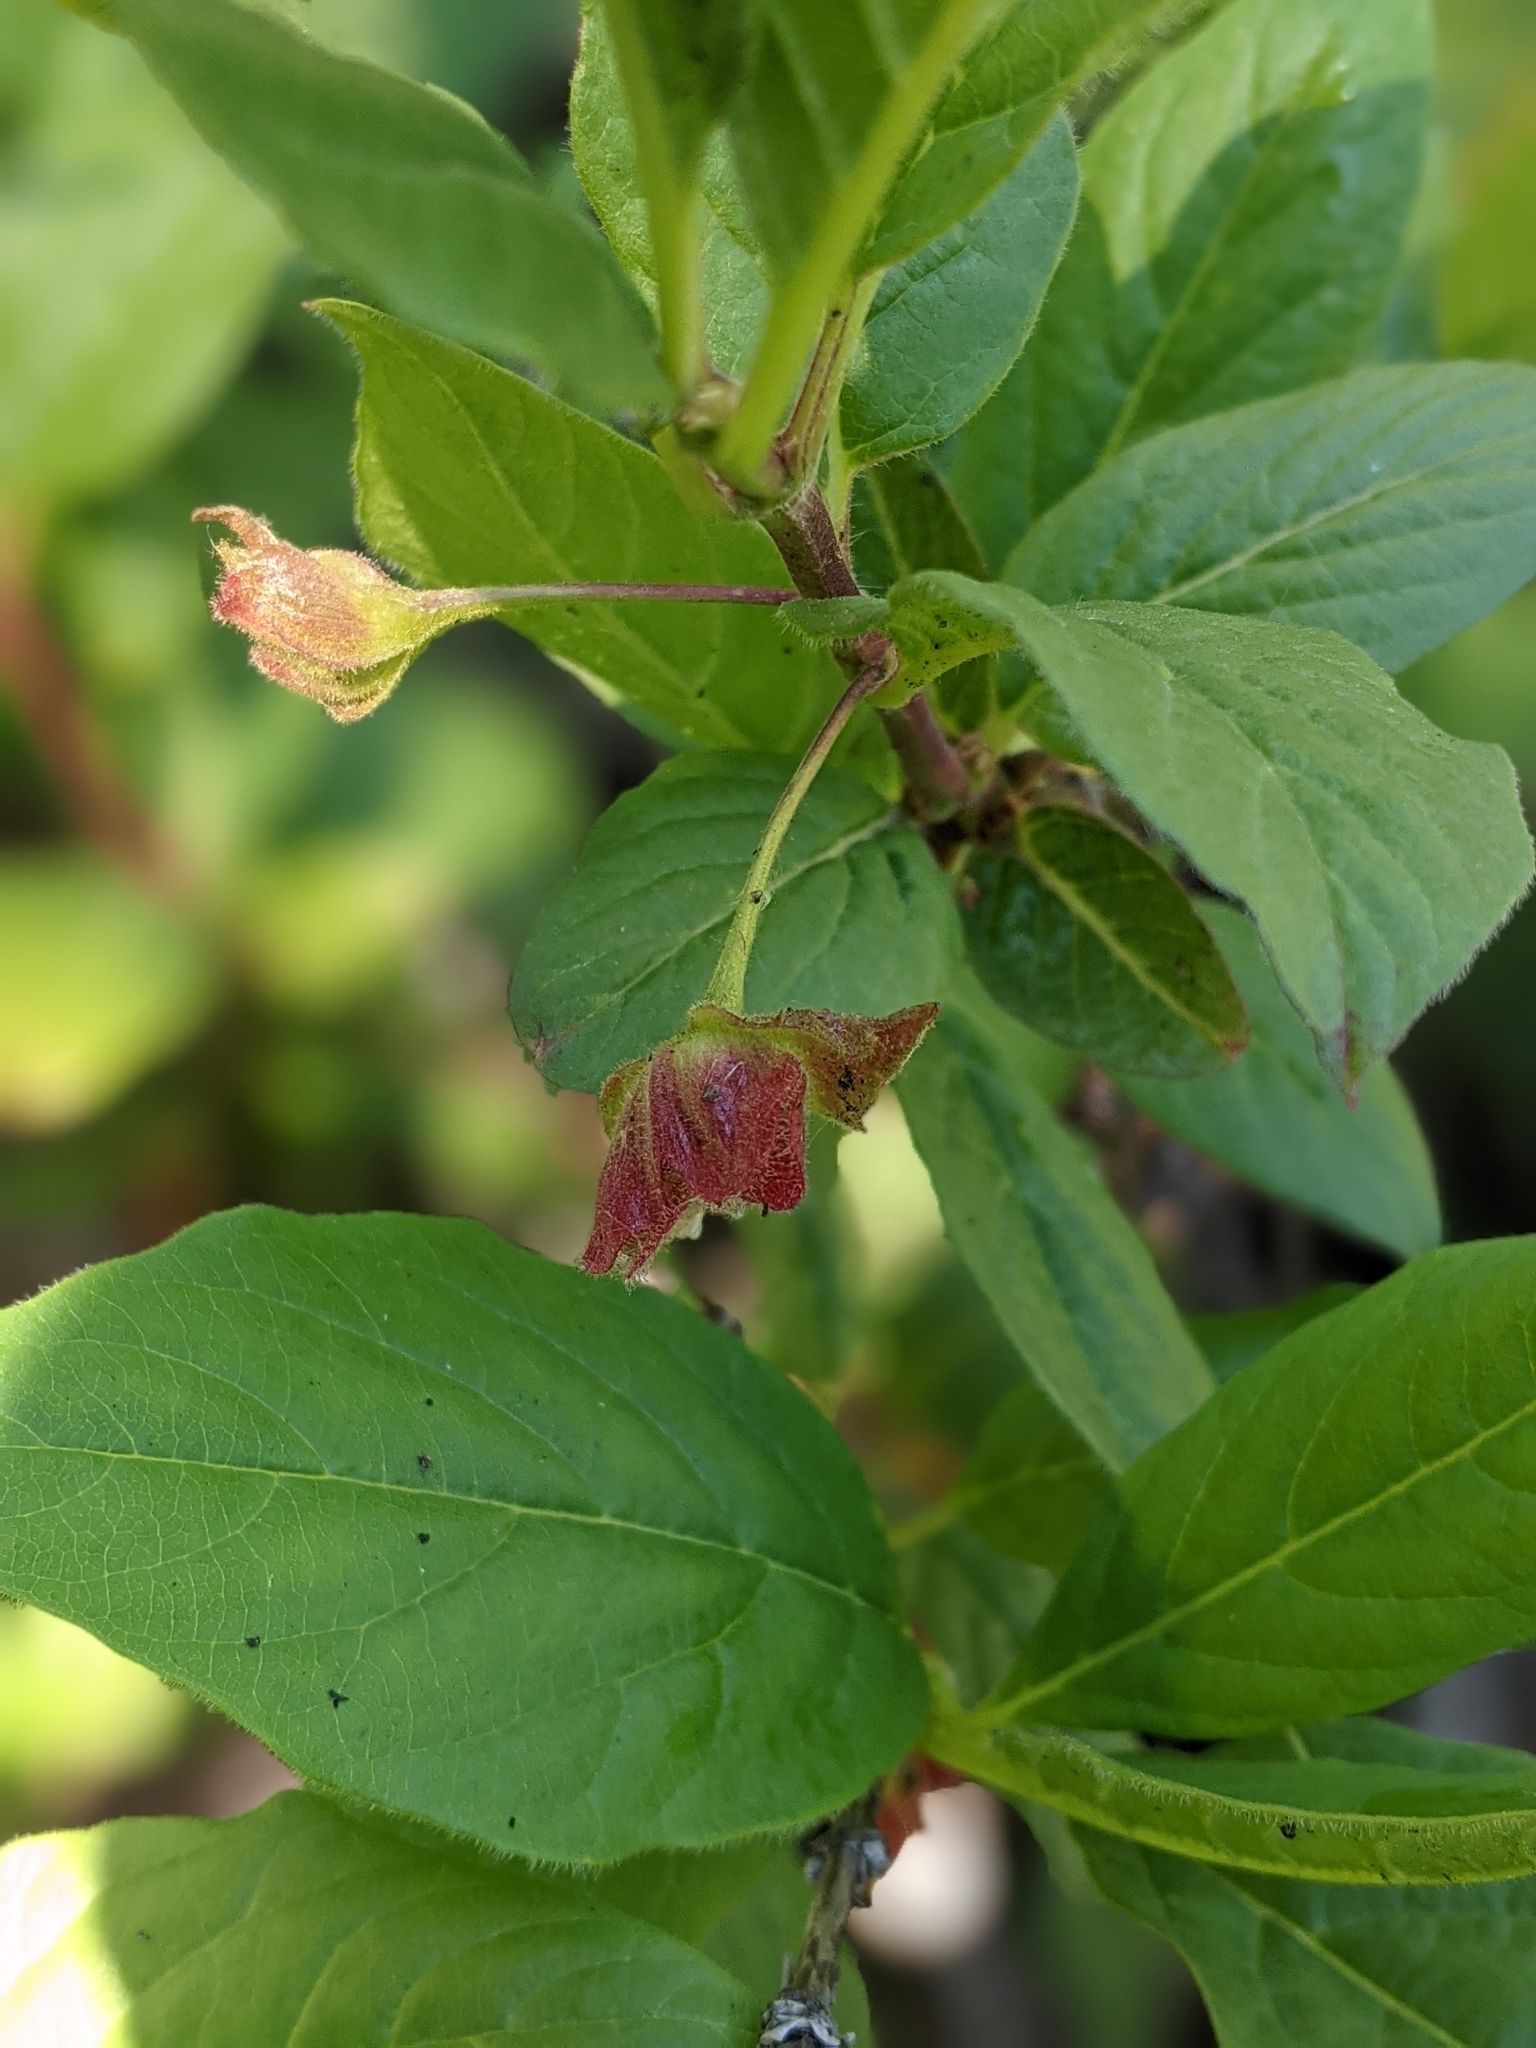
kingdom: Plantae
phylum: Tracheophyta
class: Magnoliopsida
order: Dipsacales
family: Caprifoliaceae
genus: Lonicera
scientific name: Lonicera involucrata
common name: Californian honeysuckle
